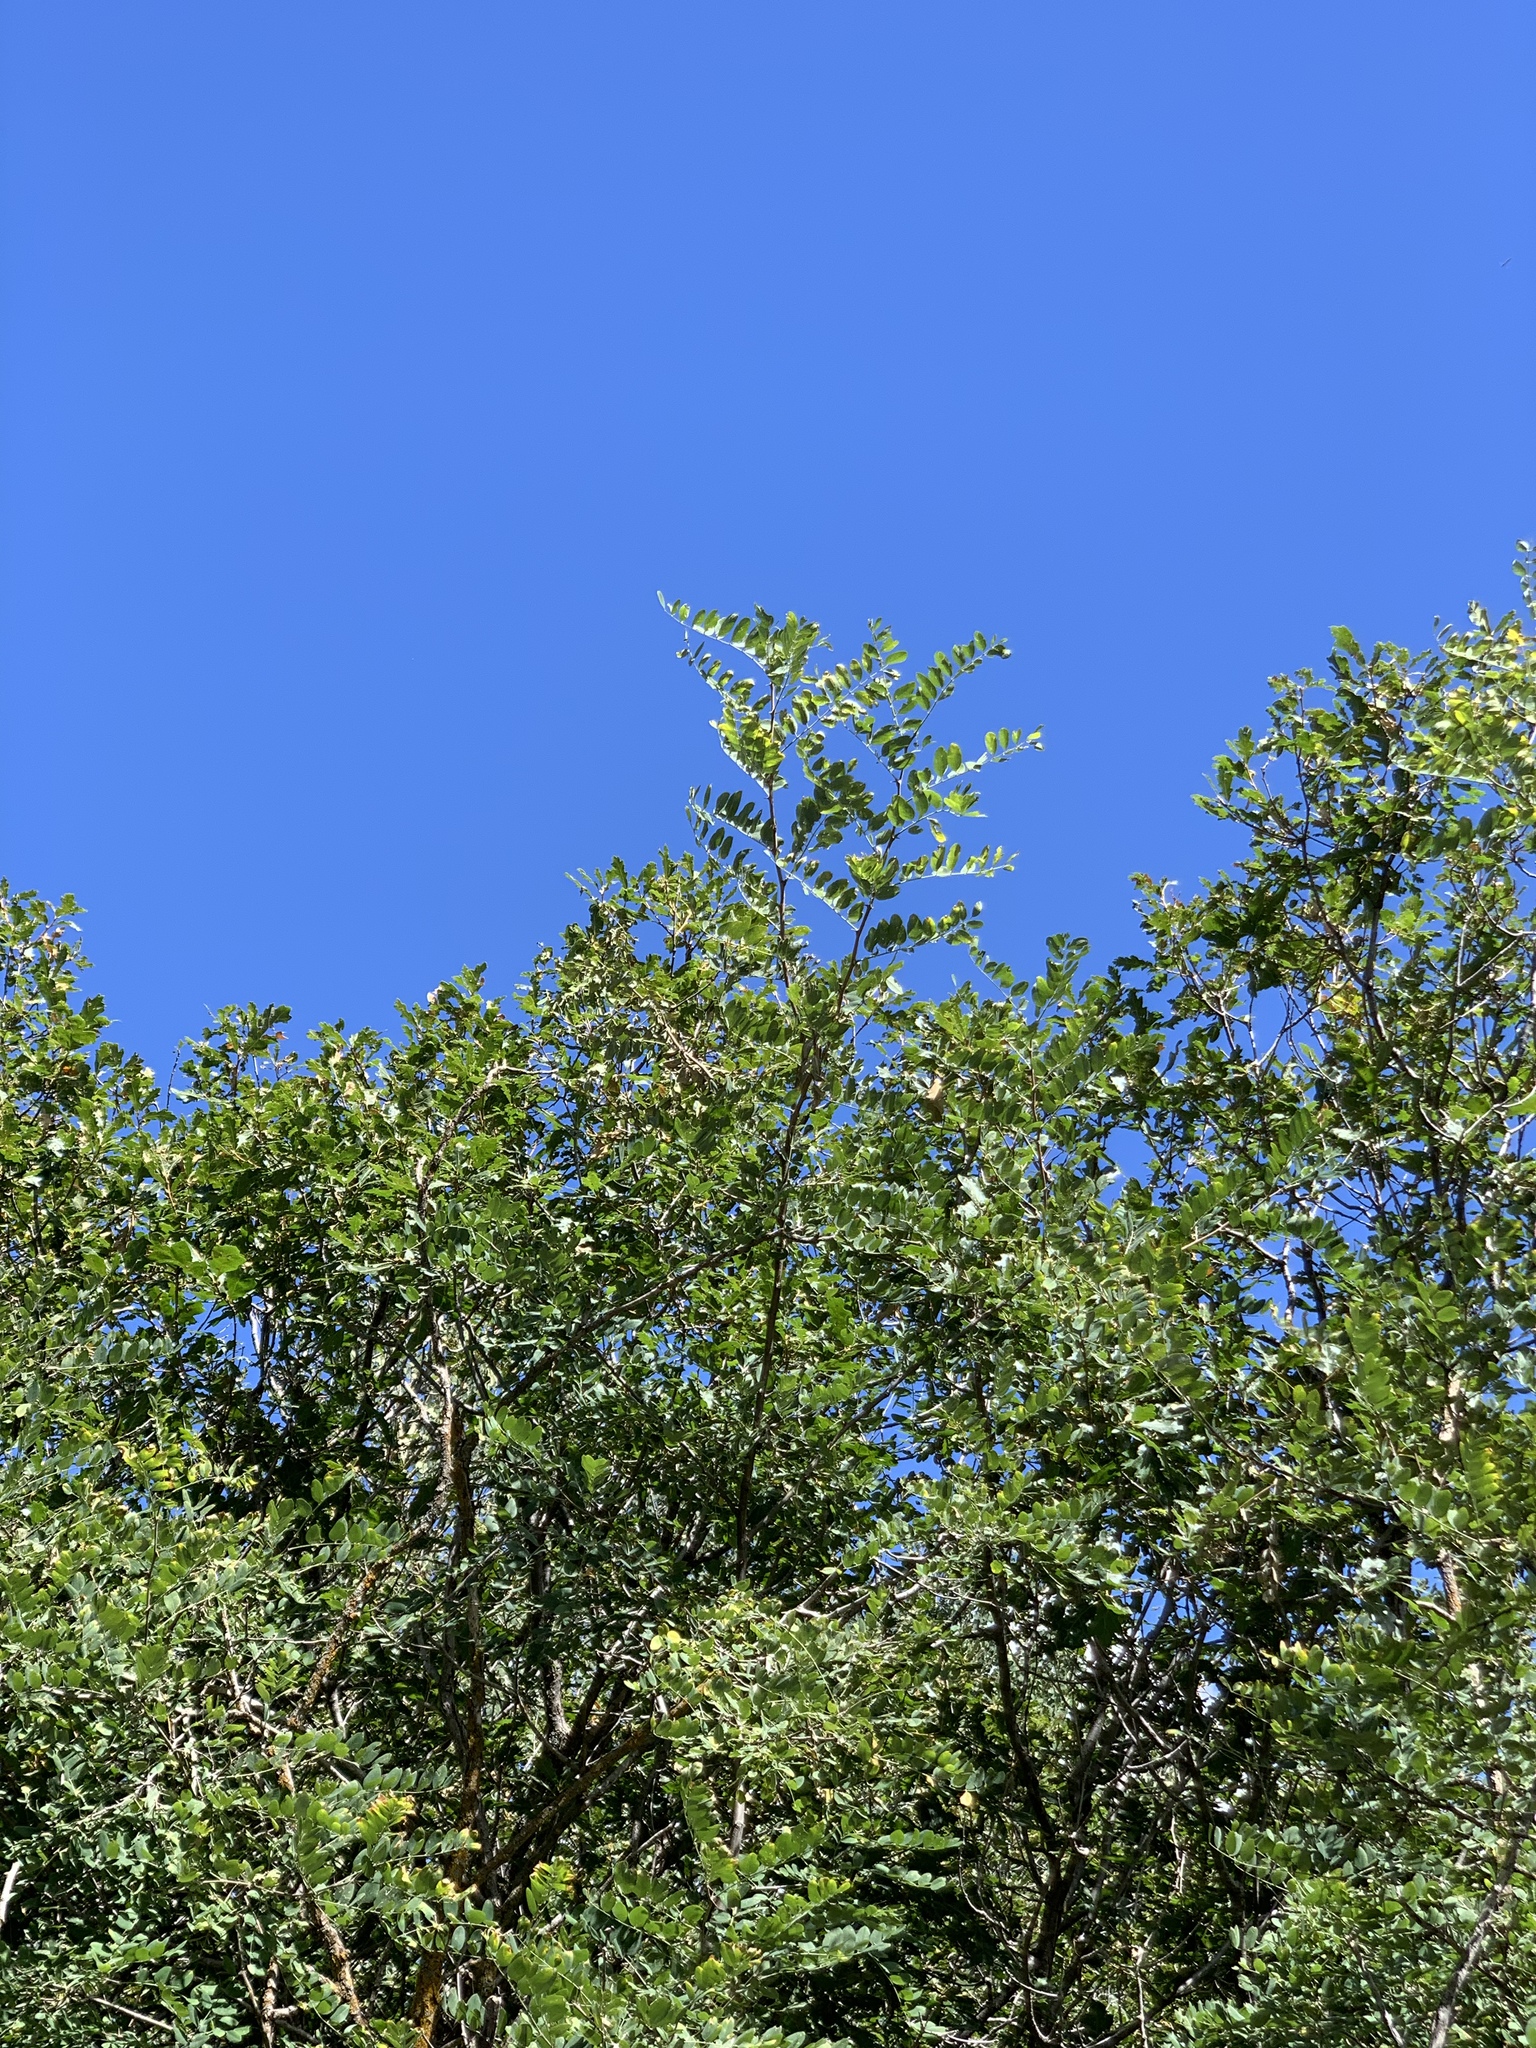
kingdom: Plantae
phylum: Tracheophyta
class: Magnoliopsida
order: Fabales
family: Fabaceae
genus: Robinia
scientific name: Robinia neomexicana
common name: New mexico locust
